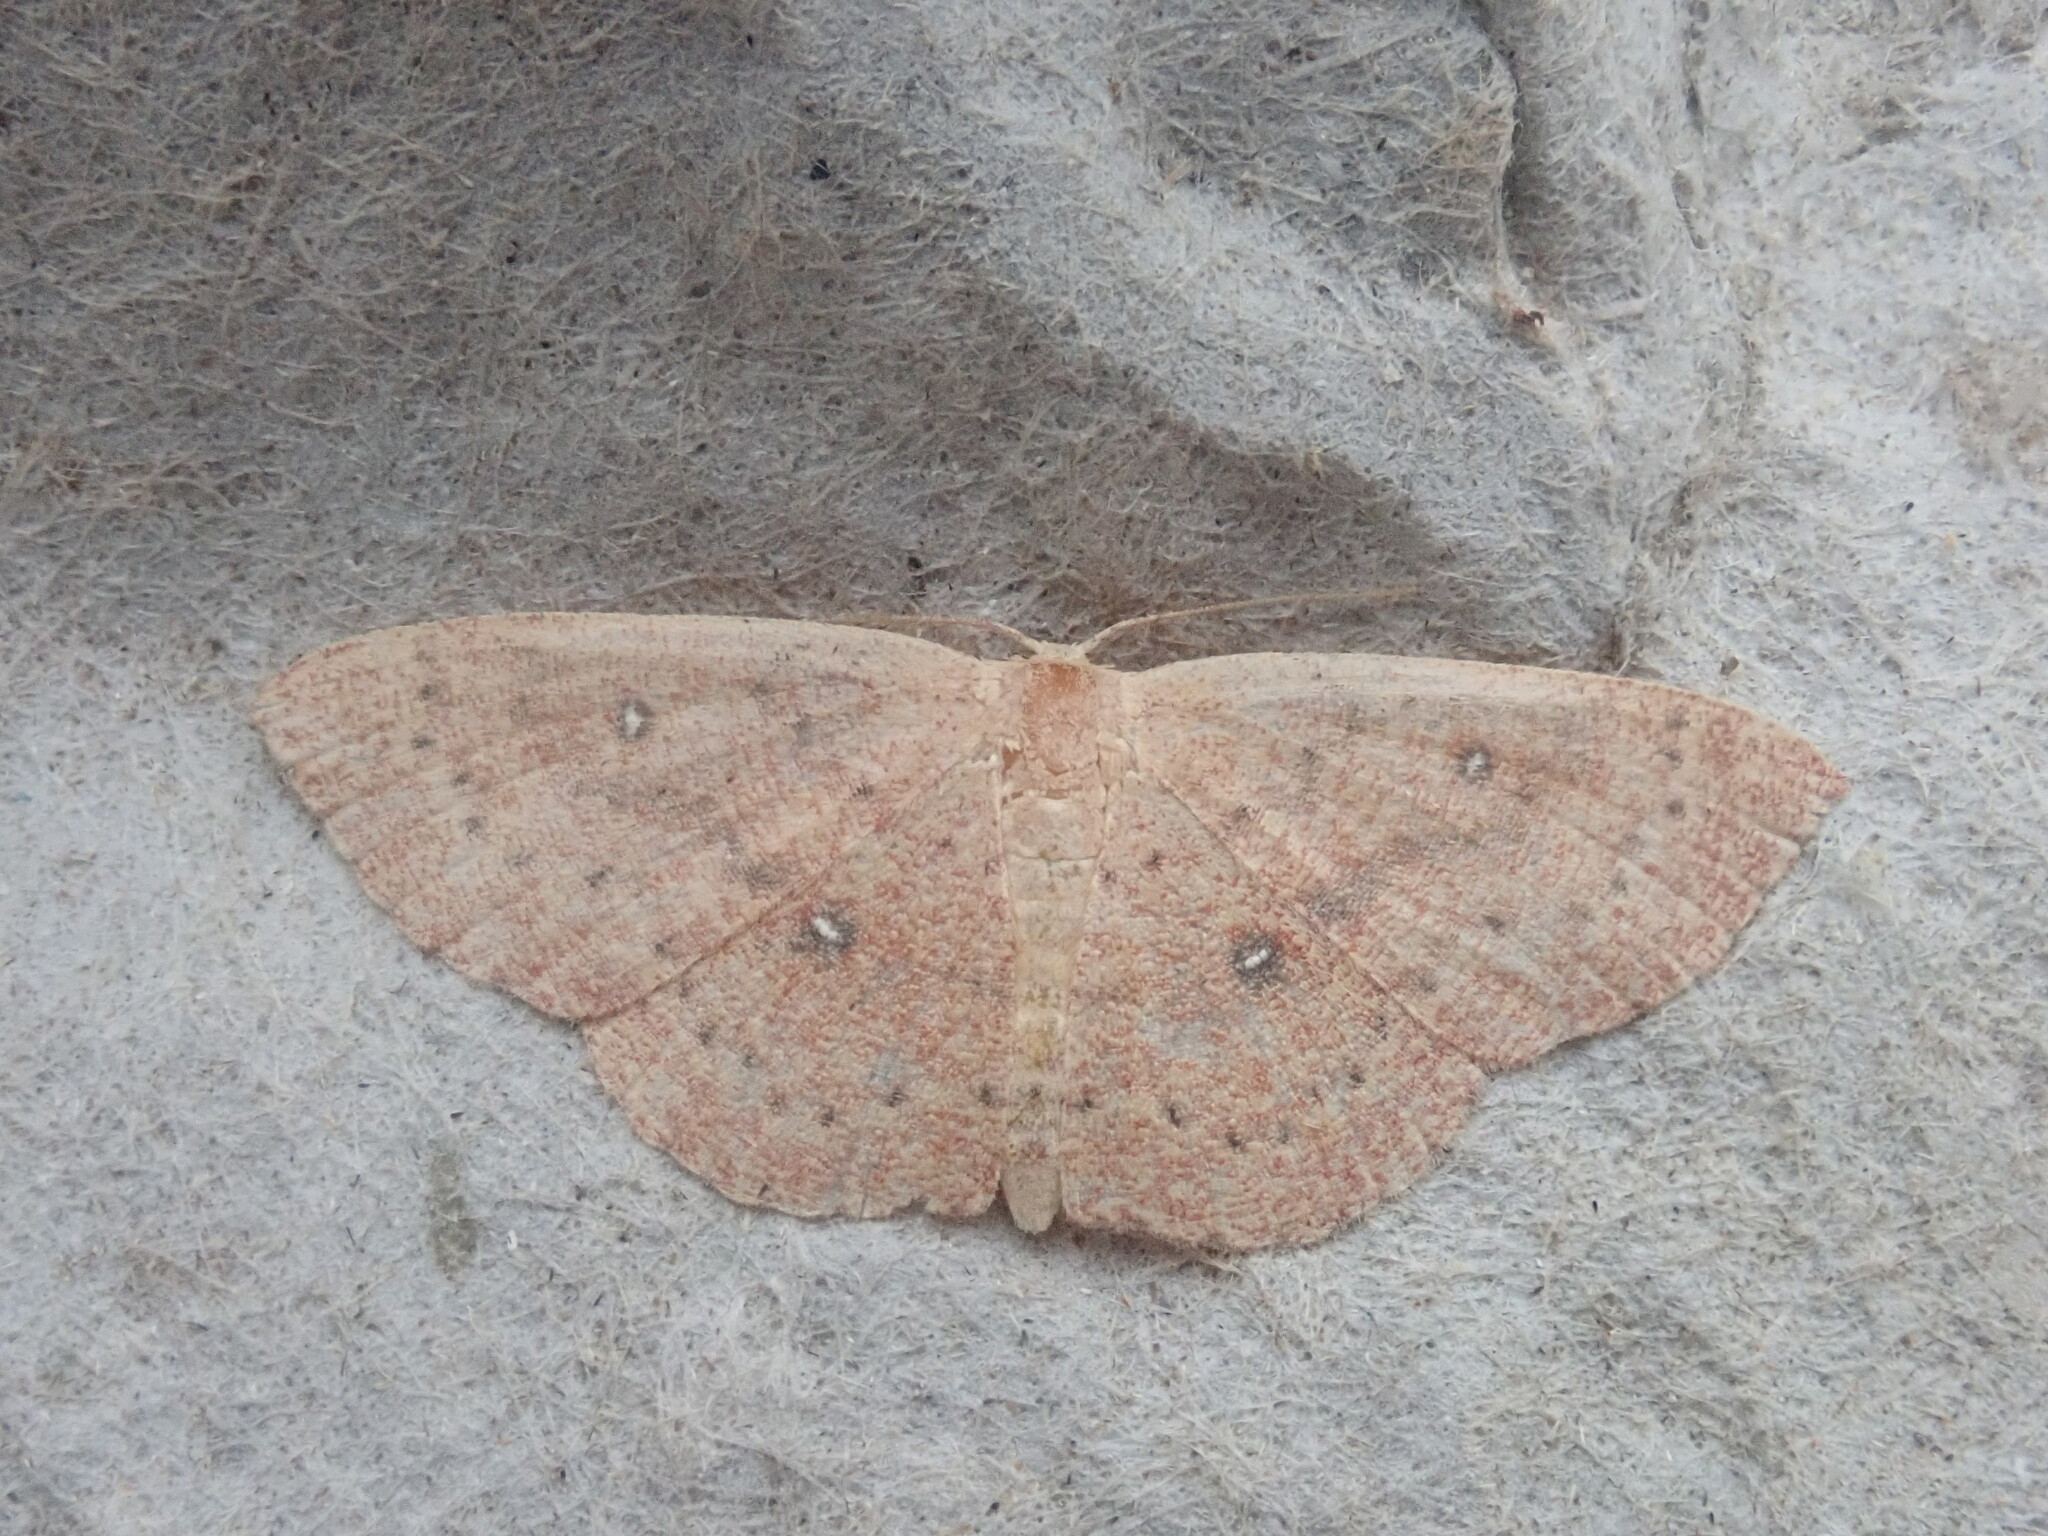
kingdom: Animalia
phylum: Arthropoda
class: Insecta
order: Lepidoptera
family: Geometridae
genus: Cyclophora
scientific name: Cyclophora packardi
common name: Packard's wave
